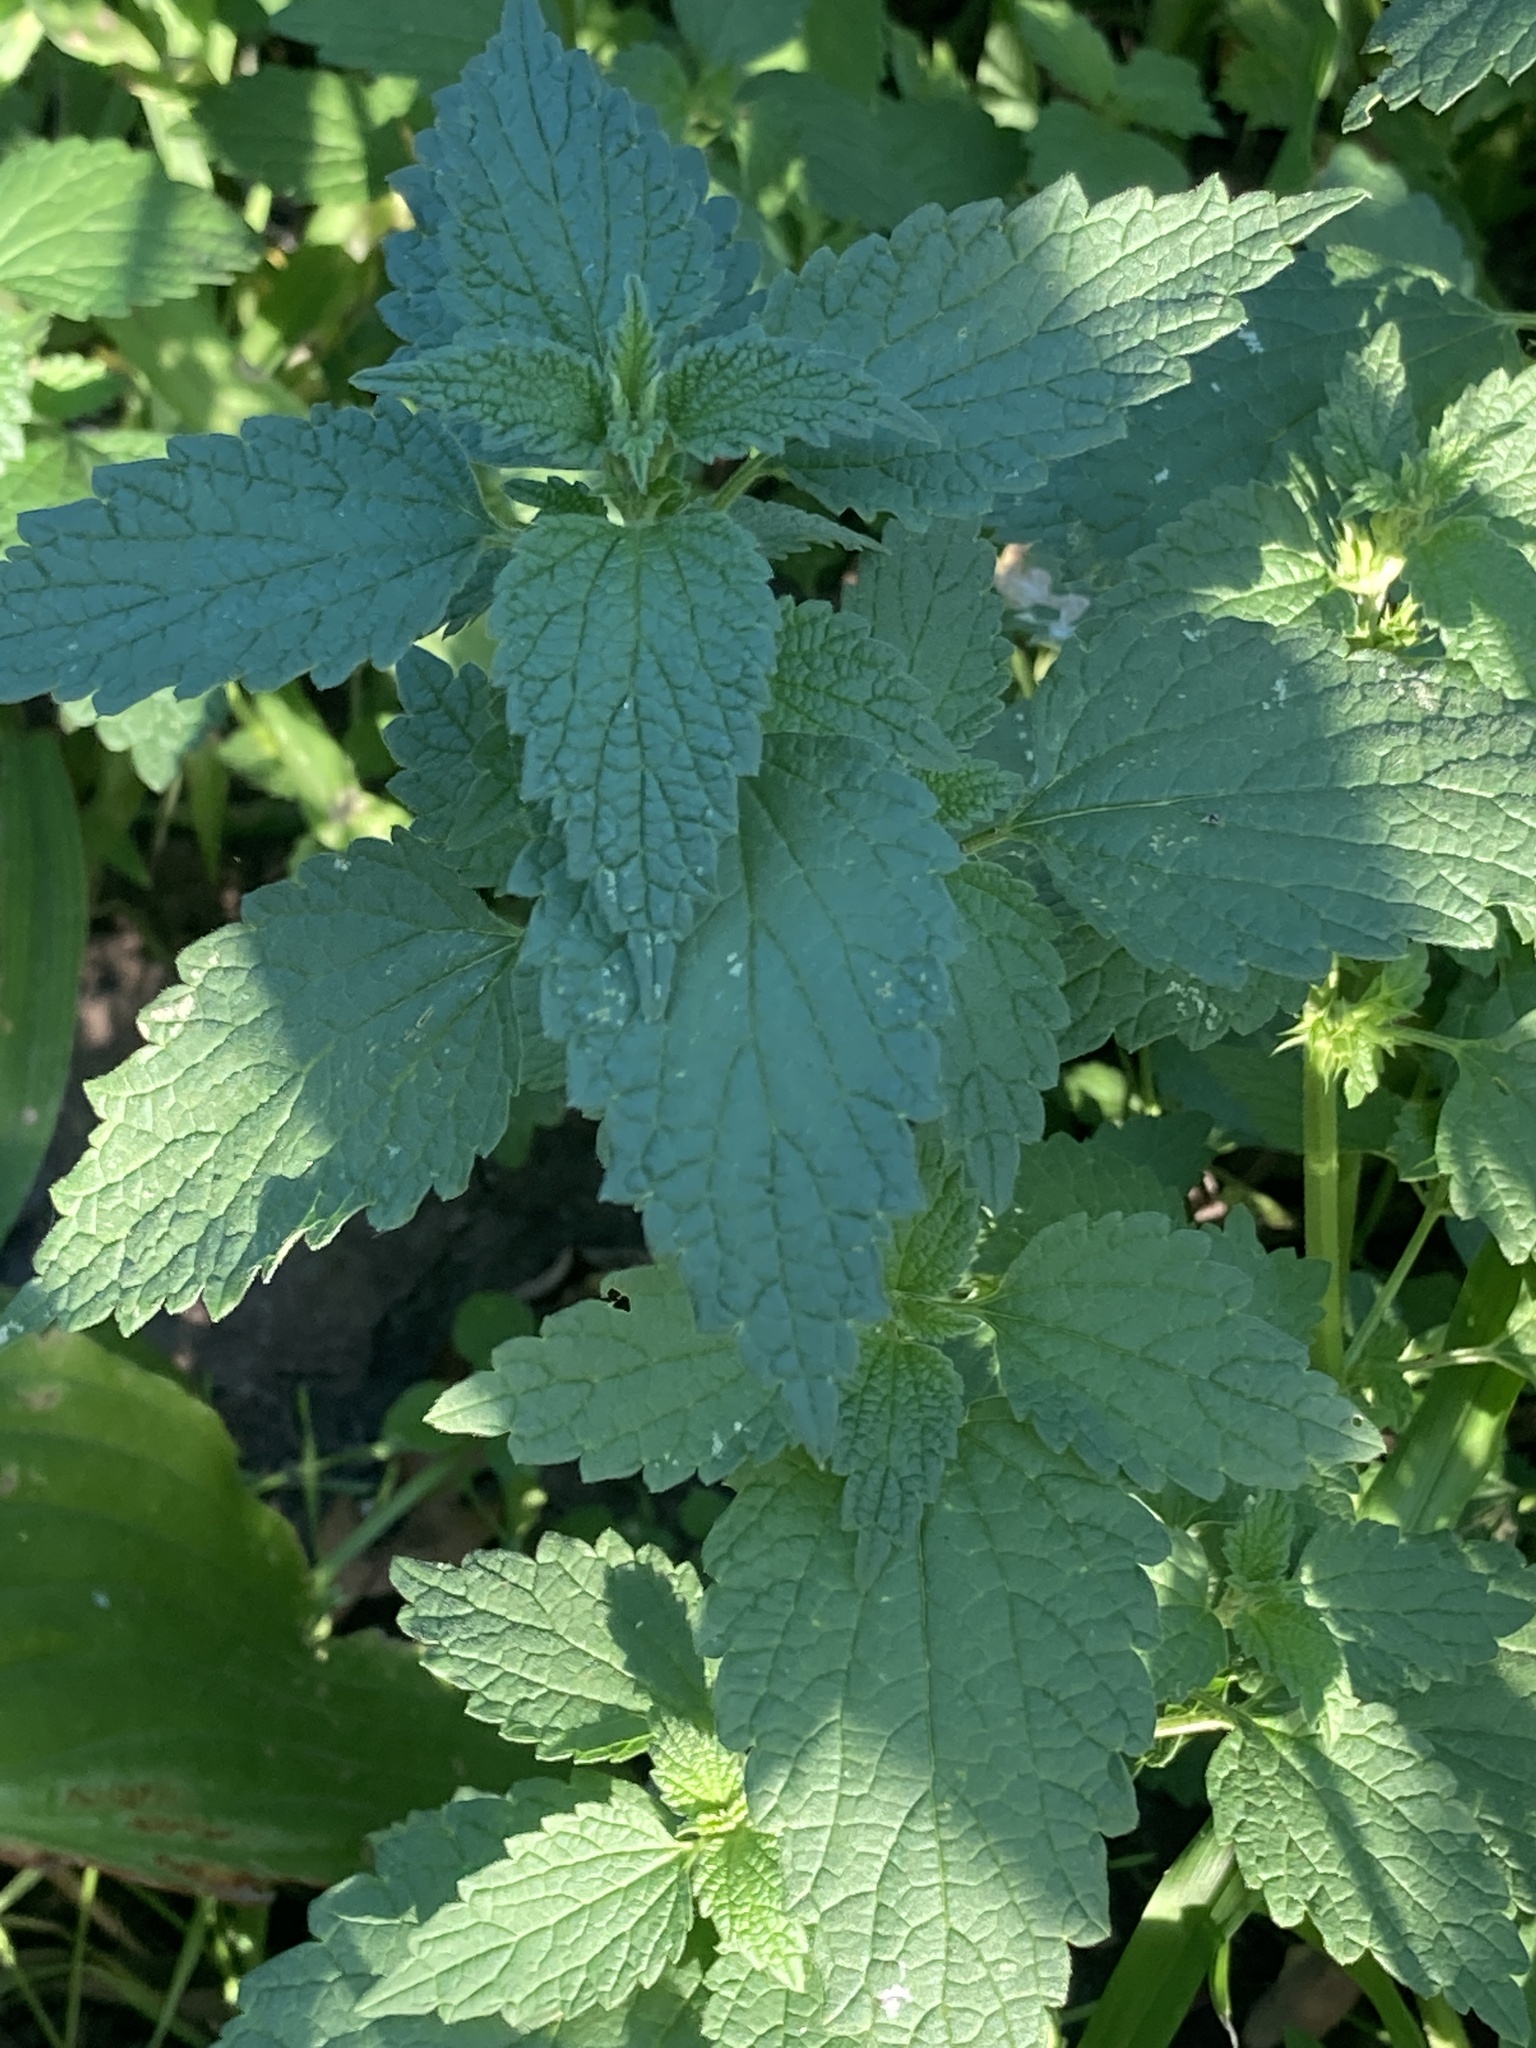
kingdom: Plantae
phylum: Tracheophyta
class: Magnoliopsida
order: Lamiales
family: Lamiaceae
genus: Ballota
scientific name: Ballota nigra
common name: Black horehound
